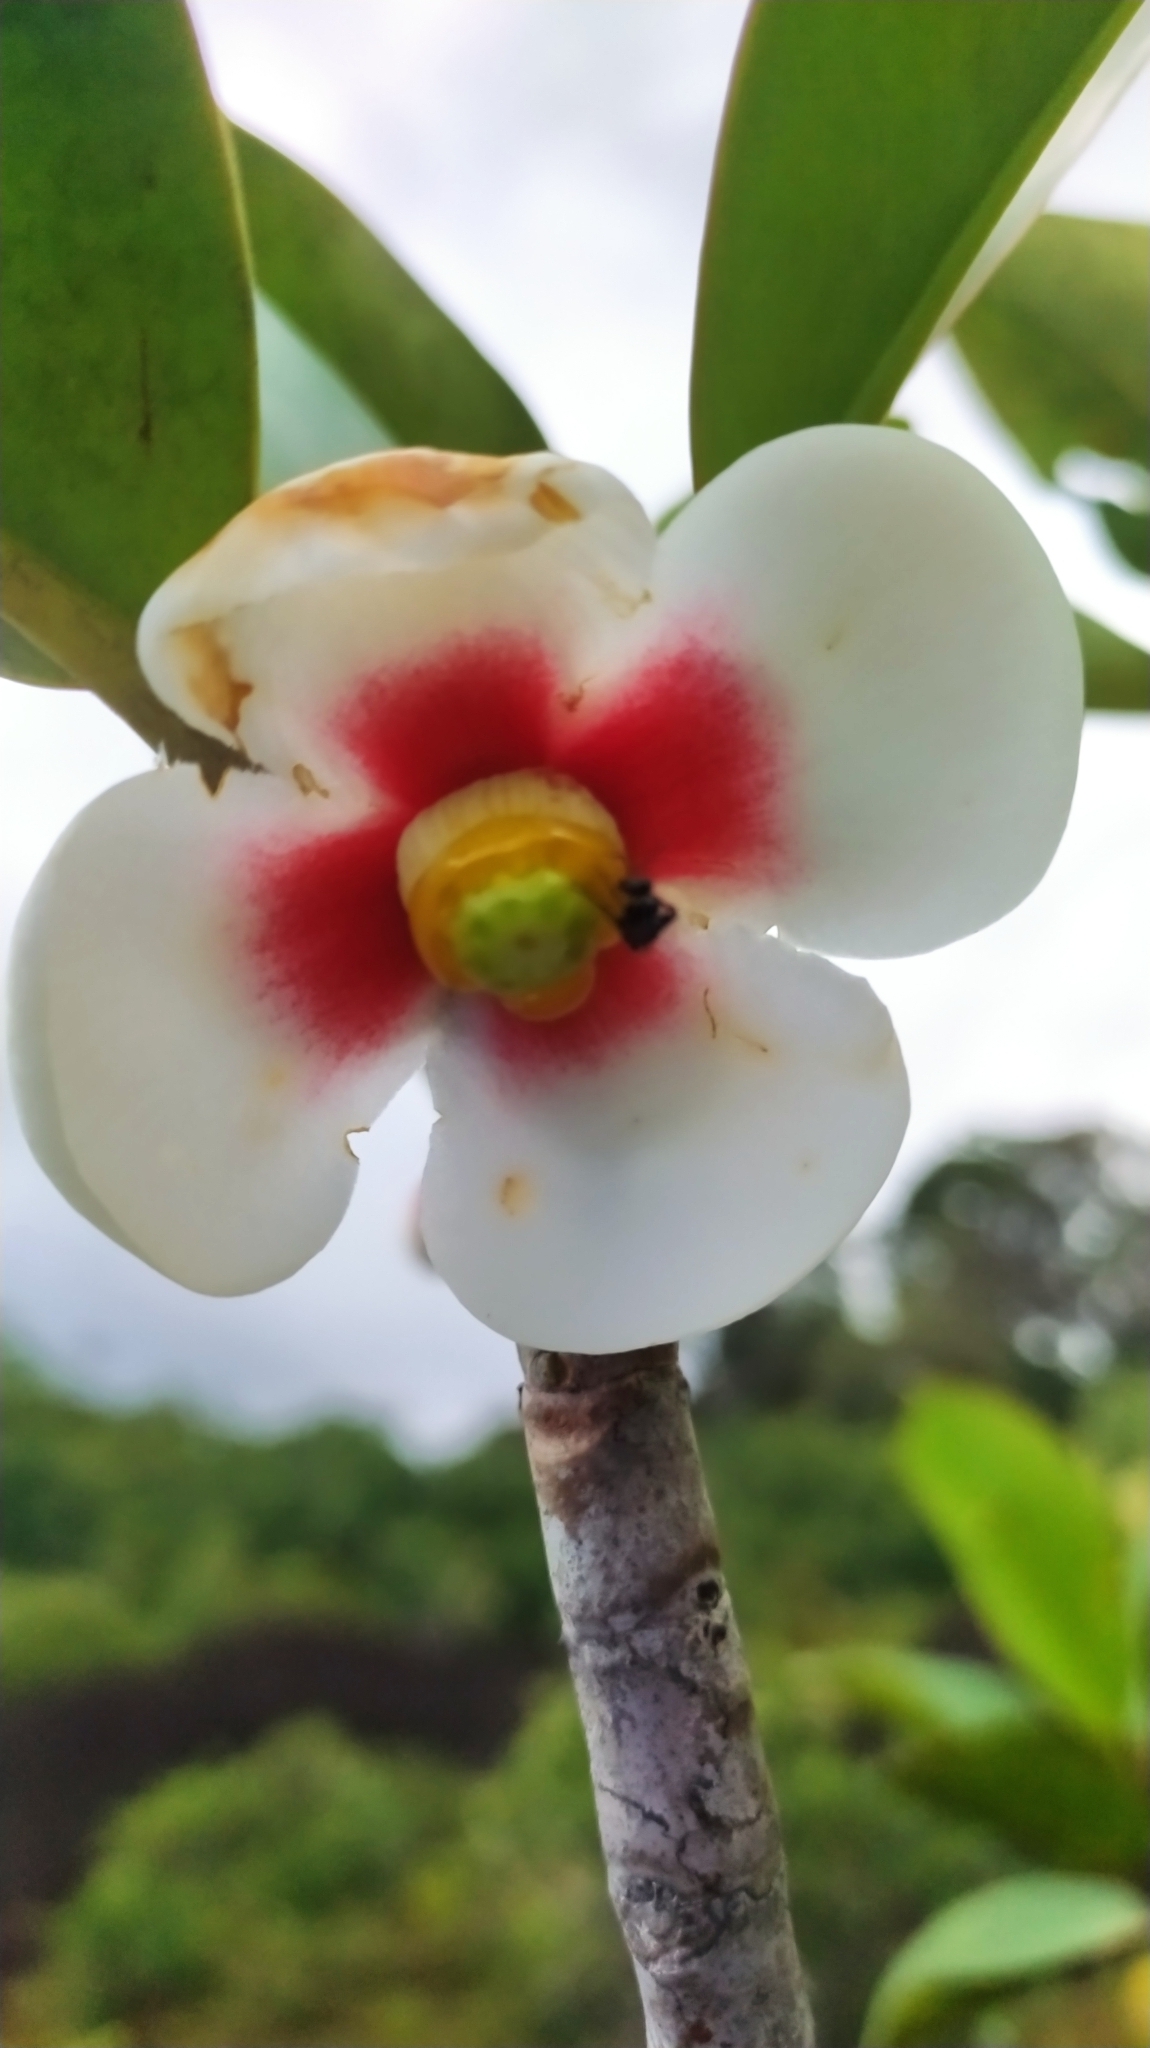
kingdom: Plantae
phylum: Tracheophyta
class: Magnoliopsida
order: Malpighiales
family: Clusiaceae
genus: Clusia
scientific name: Clusia nemorosa
